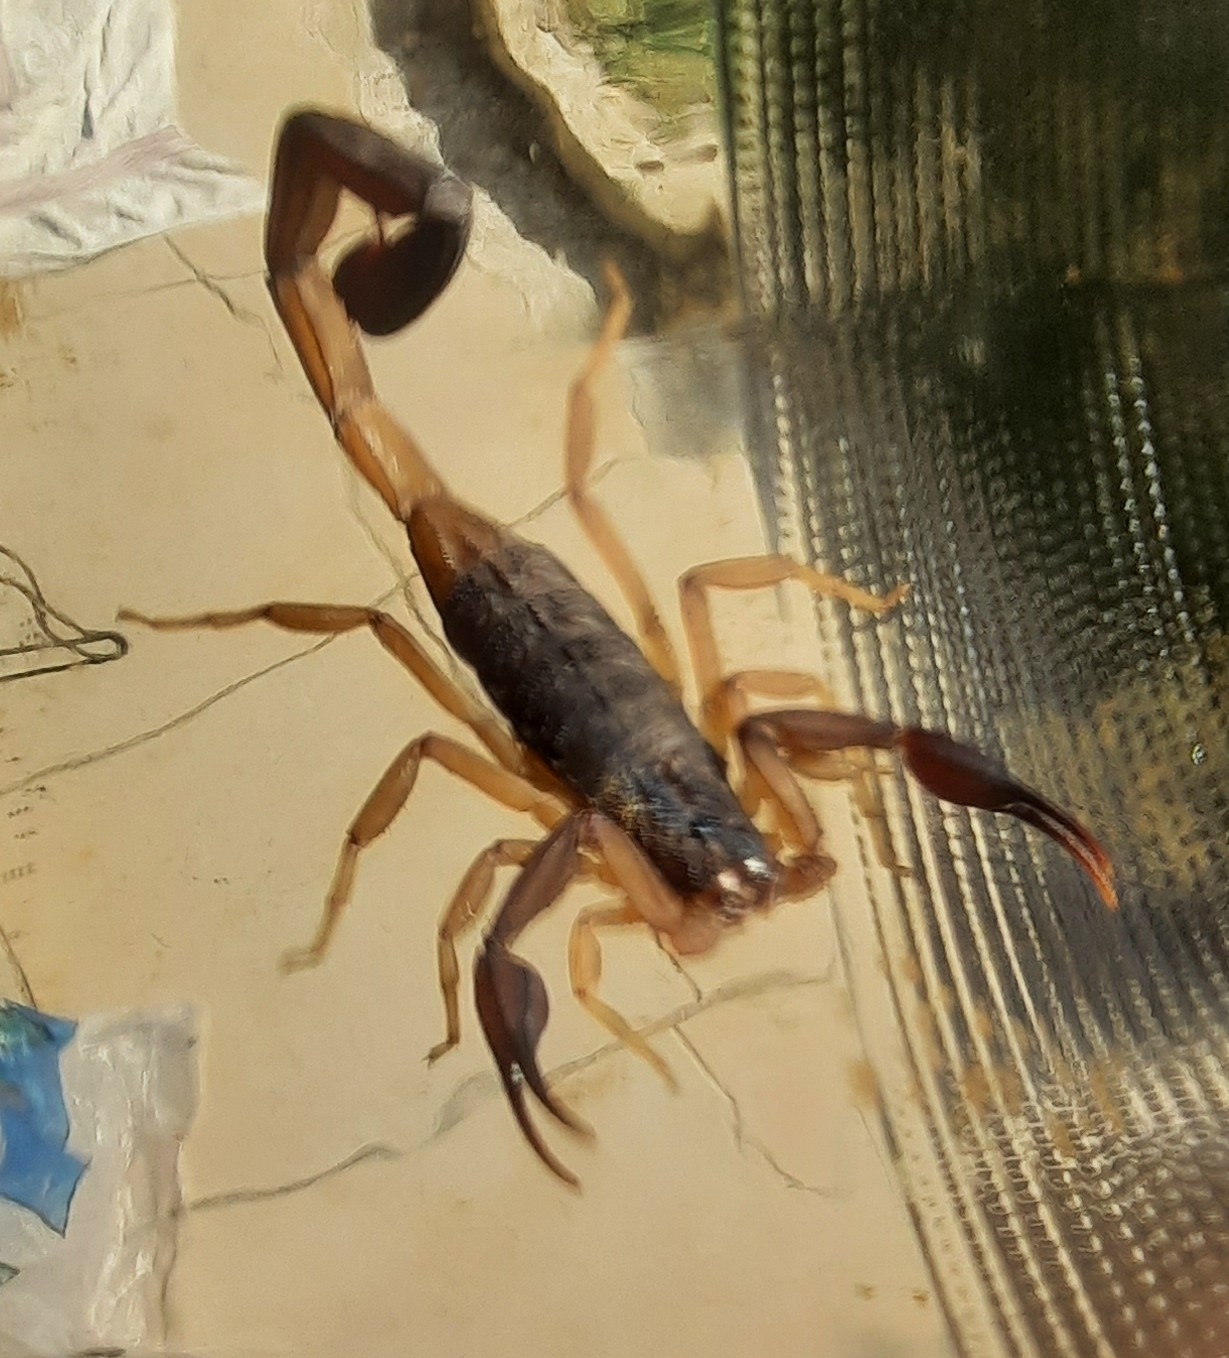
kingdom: Animalia
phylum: Arthropoda
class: Arachnida
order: Scorpiones
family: Buthidae
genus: Centruroides
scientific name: Centruroides bicolor
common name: Scorpions
